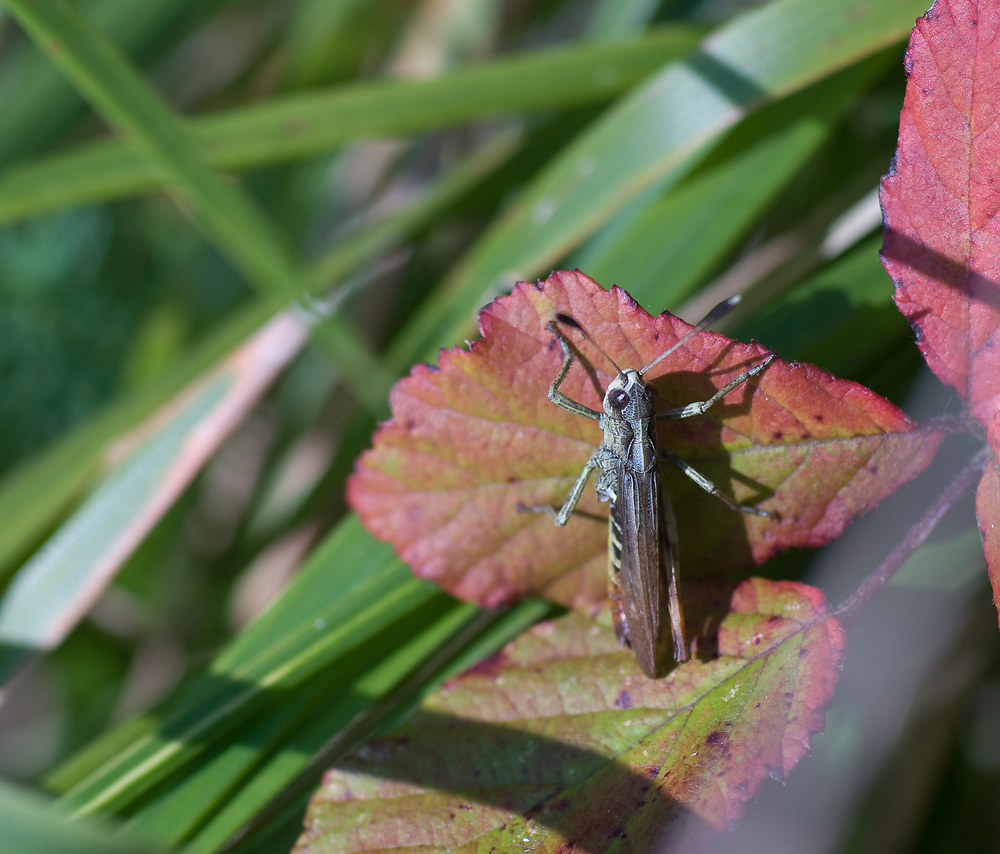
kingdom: Animalia
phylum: Arthropoda
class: Insecta
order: Orthoptera
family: Acrididae
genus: Gomphocerippus
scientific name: Gomphocerippus rufus
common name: Rufous grasshopper
